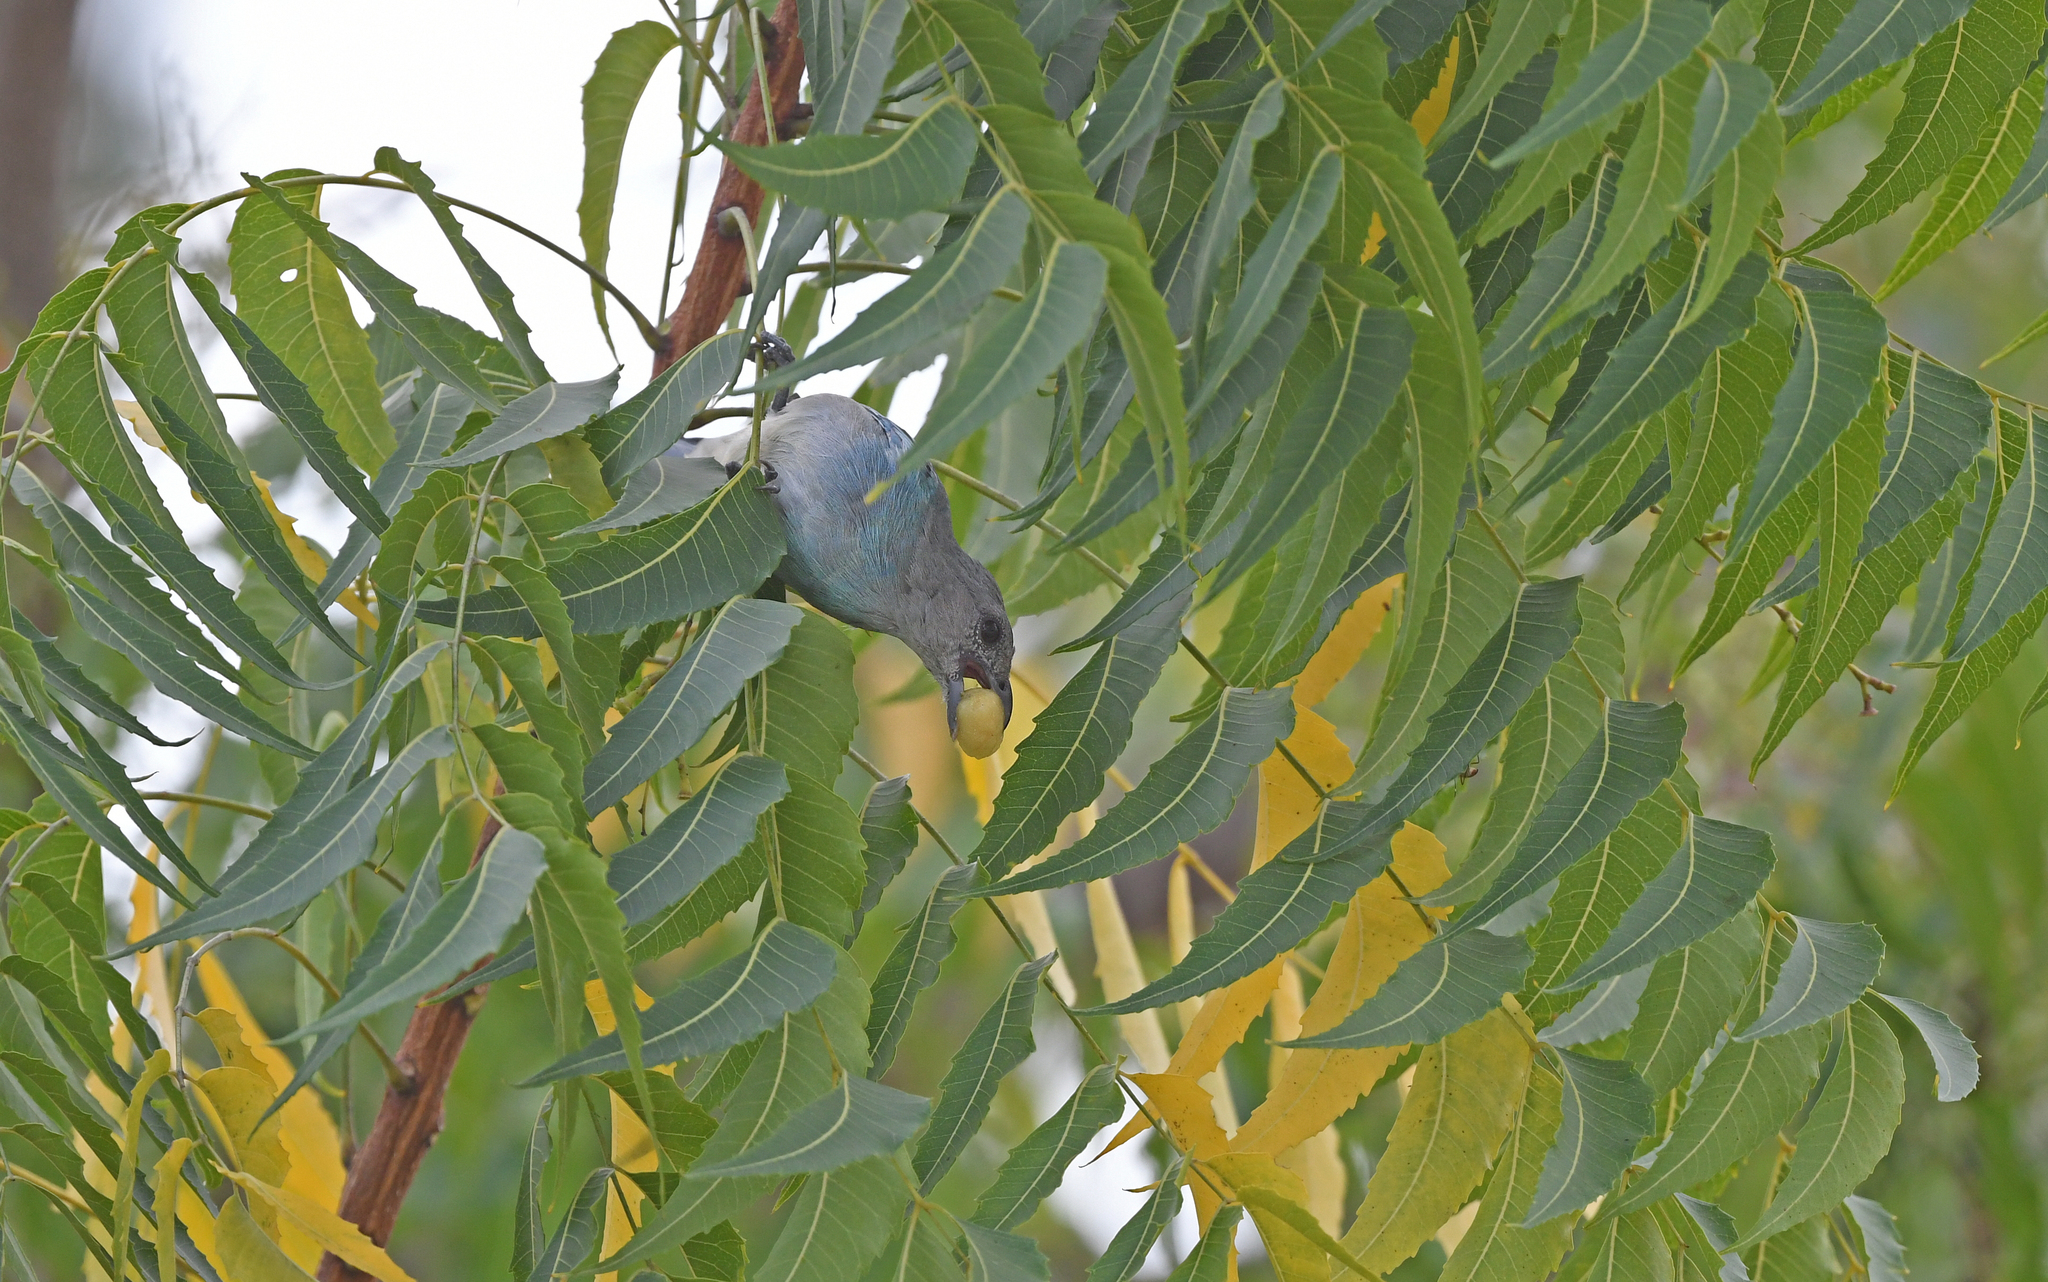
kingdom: Animalia
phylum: Chordata
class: Aves
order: Passeriformes
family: Thraupidae
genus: Thraupis
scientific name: Thraupis glaucocolpa
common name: Glaucous tanager
